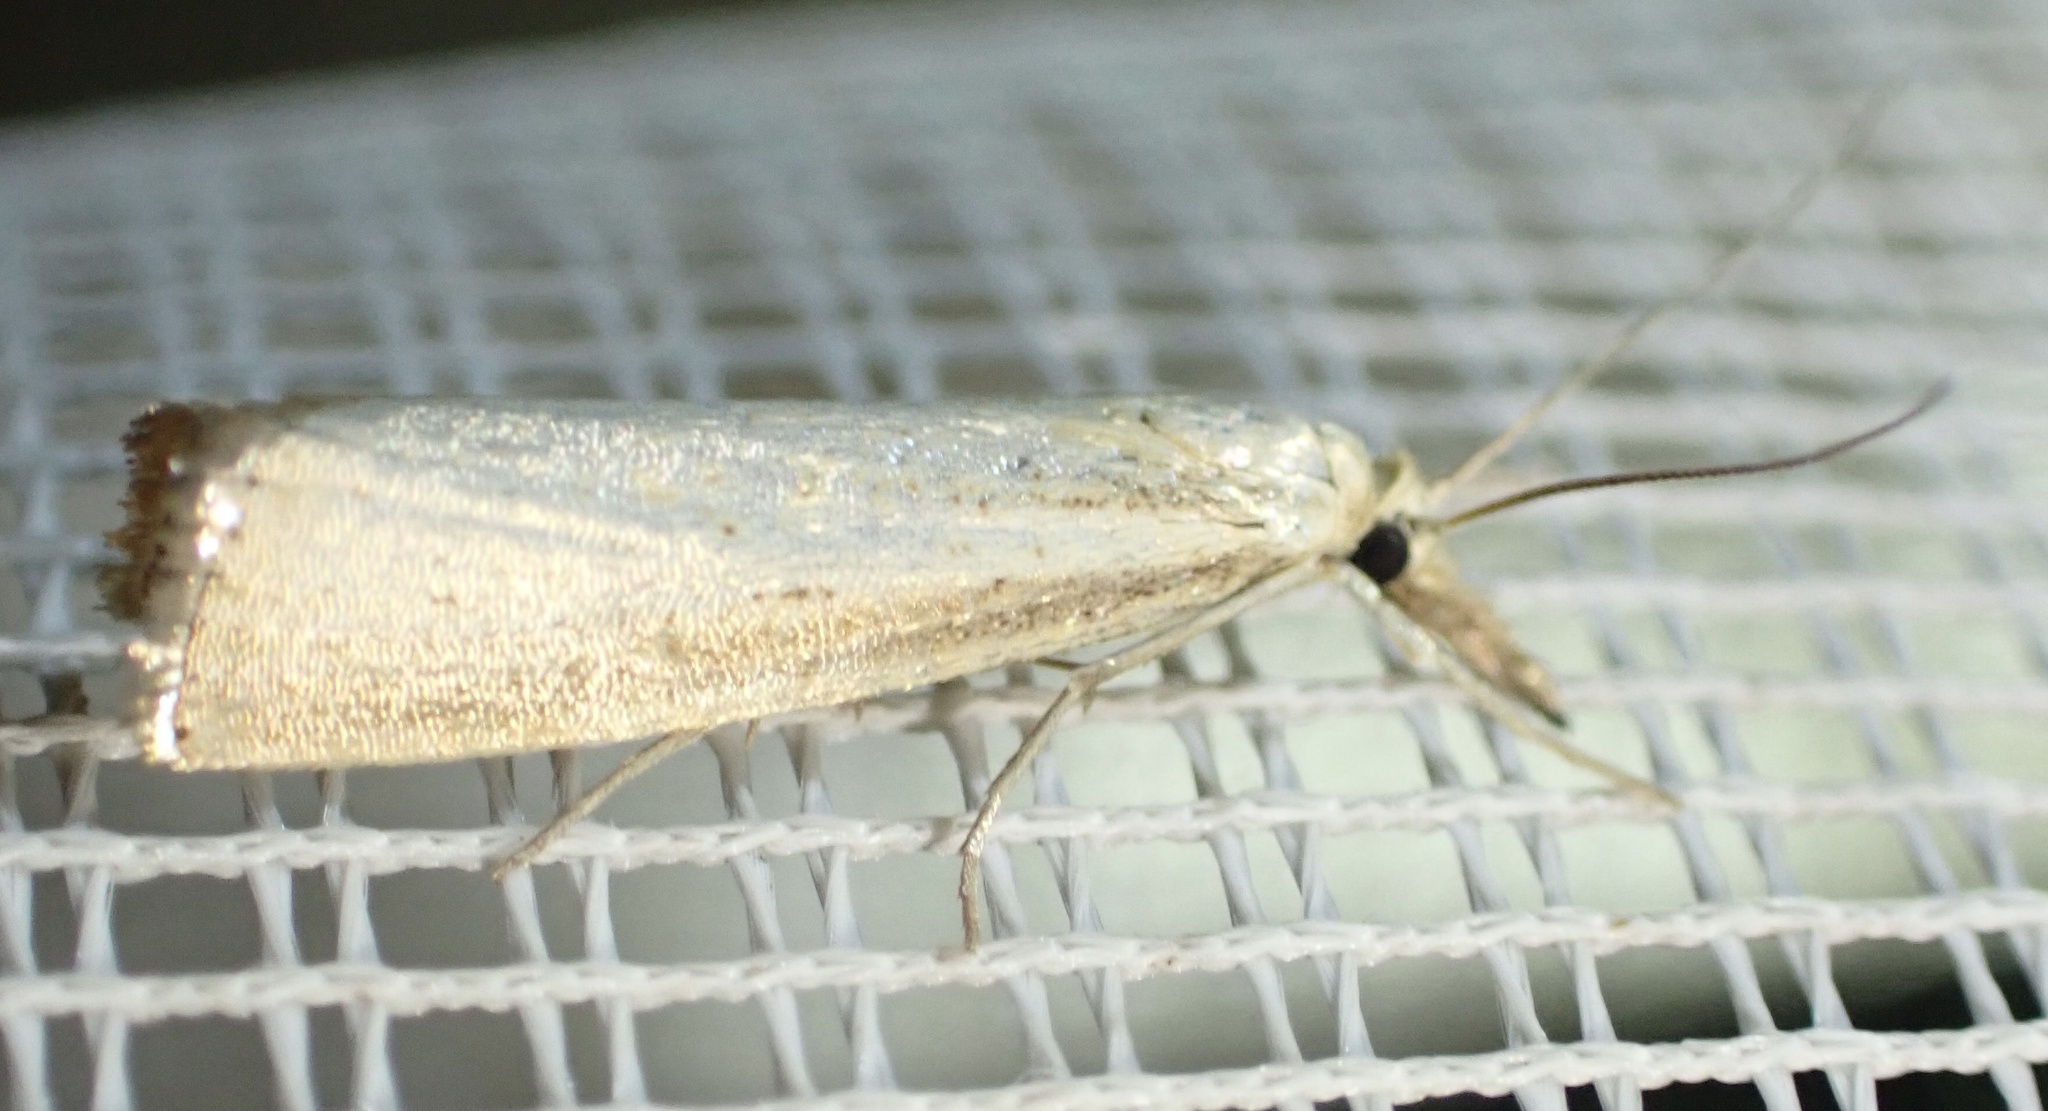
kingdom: Animalia
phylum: Arthropoda
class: Insecta
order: Lepidoptera
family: Crambidae
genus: Agriphila
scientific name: Agriphila straminella
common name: Straw grass-veneer
